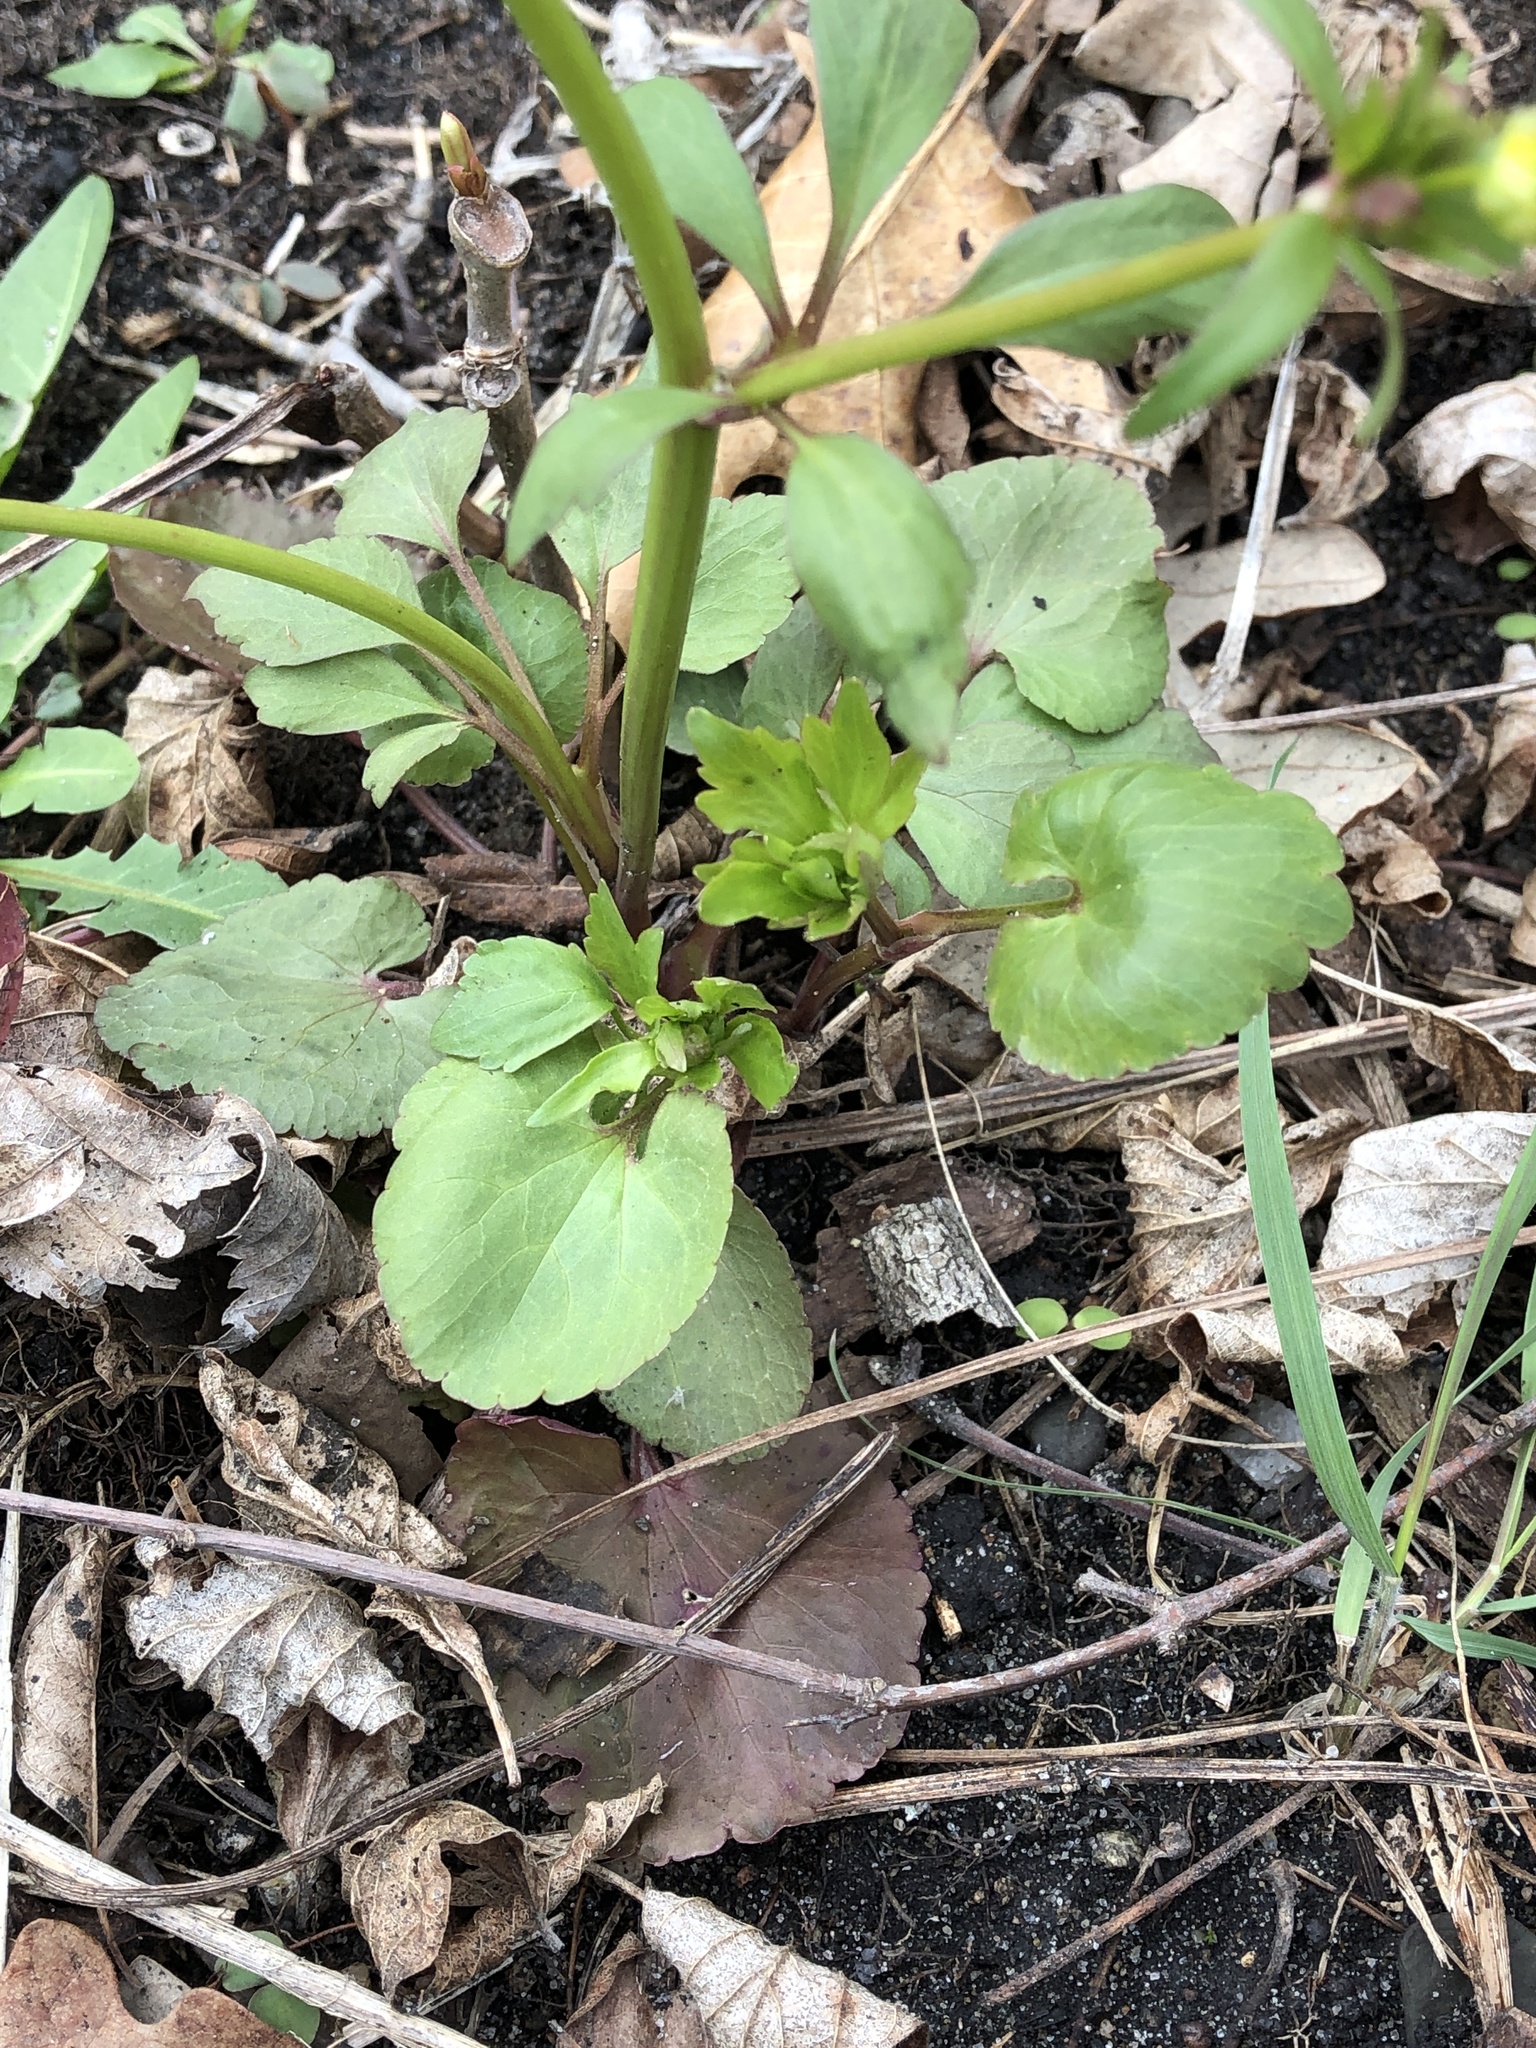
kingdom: Plantae
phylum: Tracheophyta
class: Magnoliopsida
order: Ranunculales
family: Ranunculaceae
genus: Ranunculus
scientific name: Ranunculus abortivus
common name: Early wood buttercup
